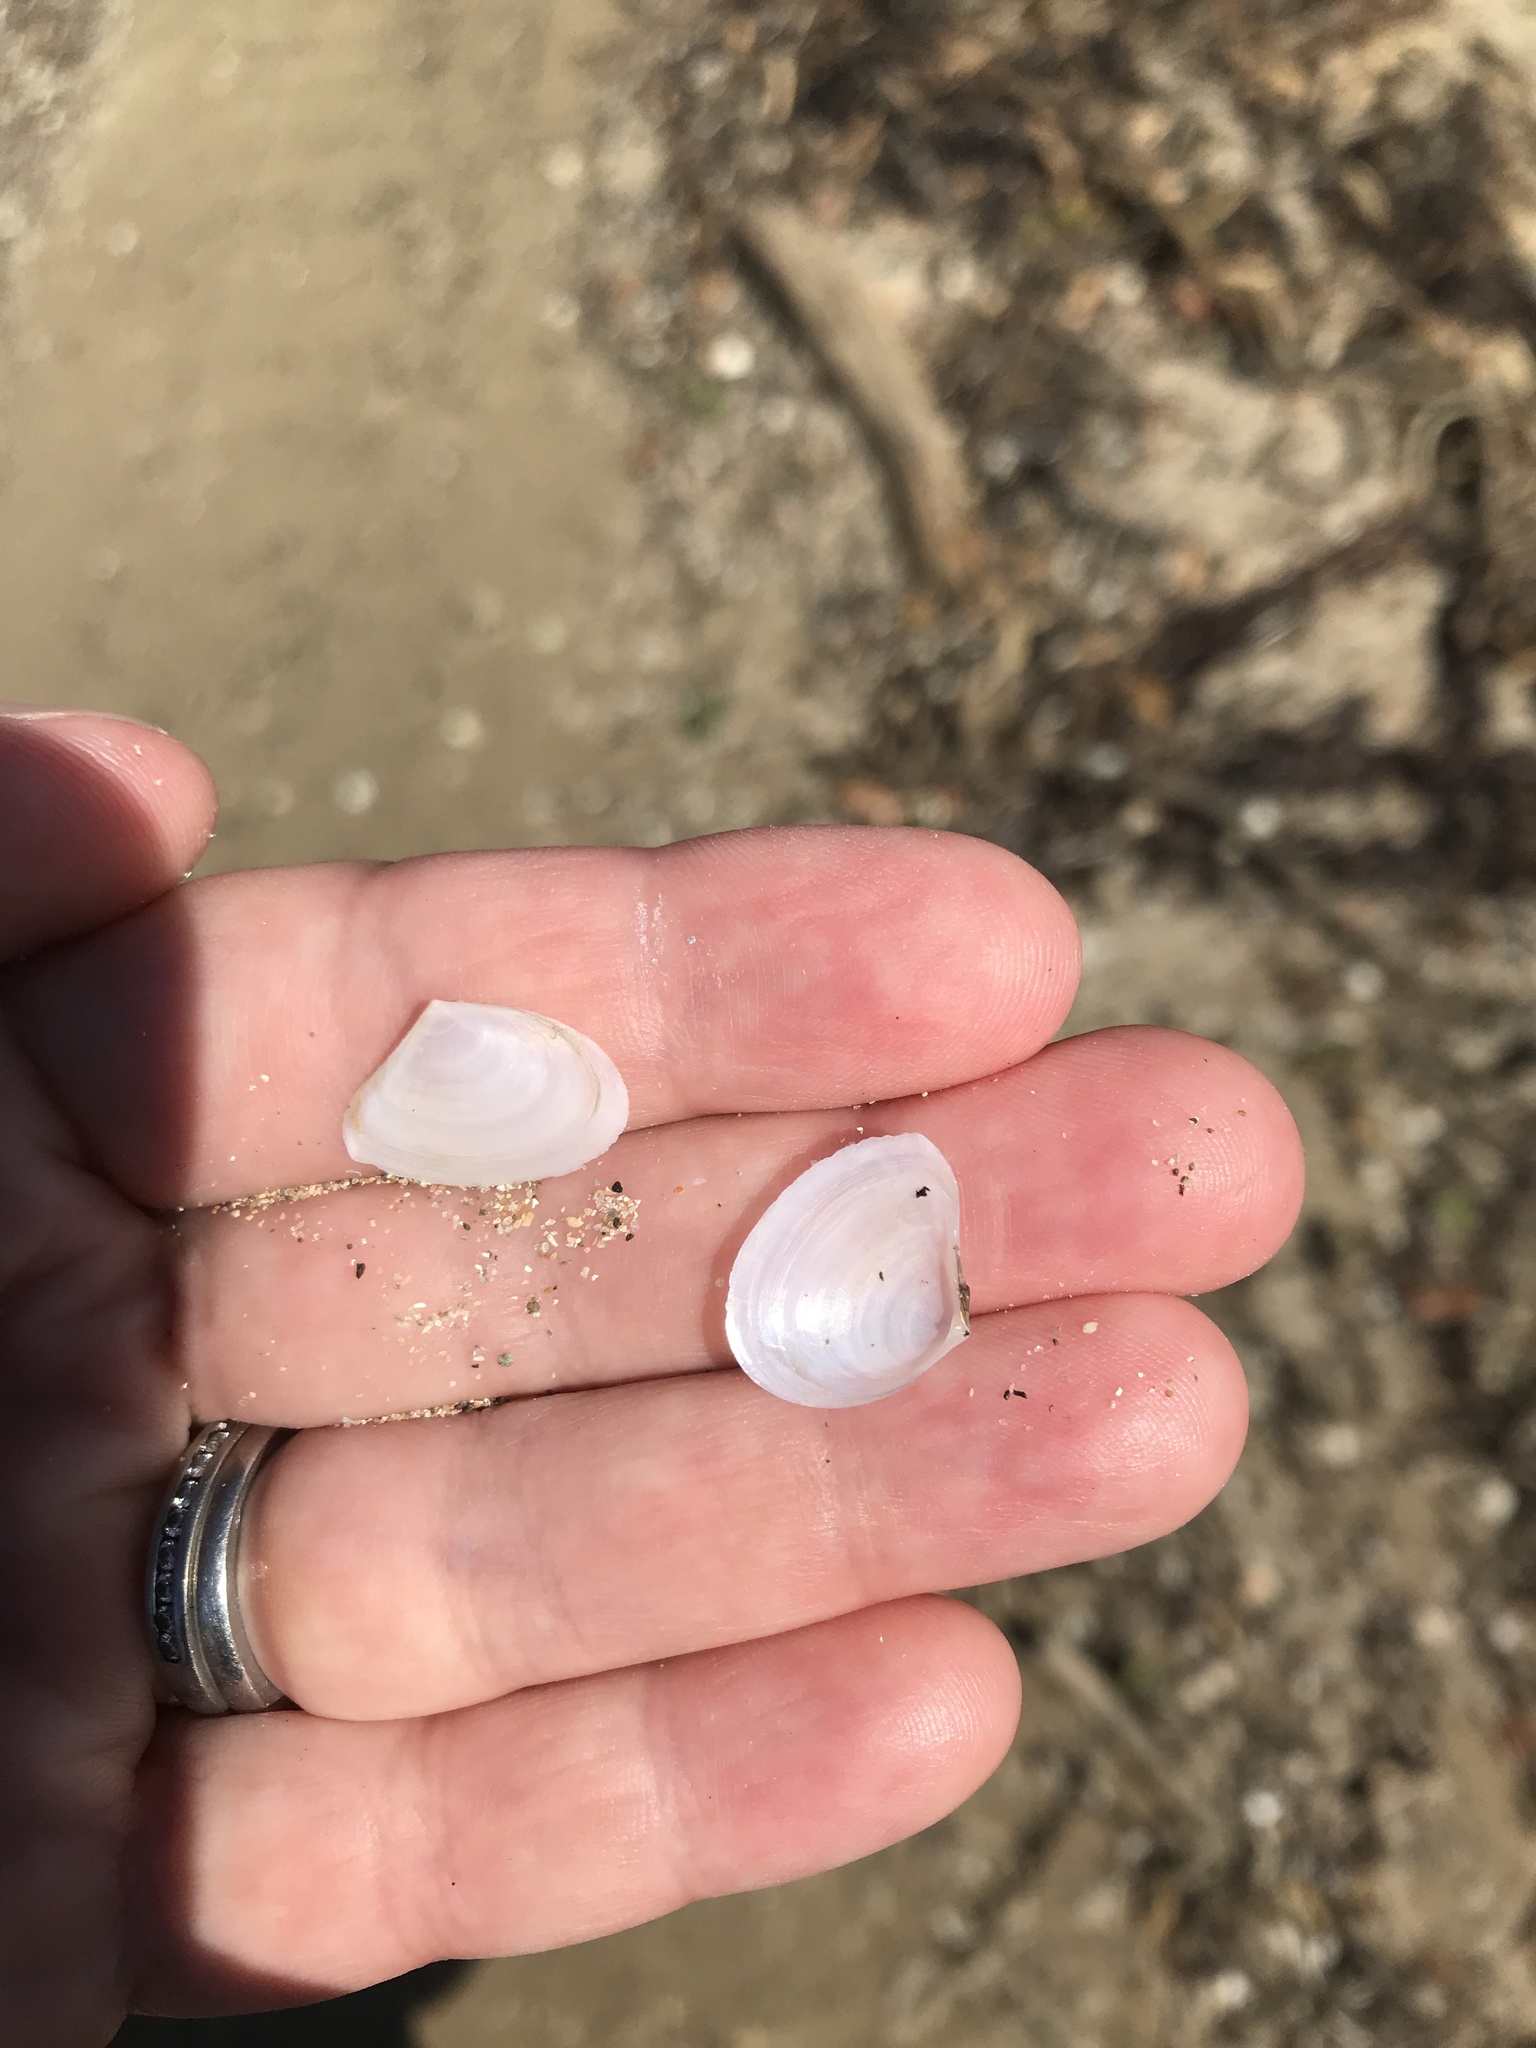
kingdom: Animalia
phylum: Mollusca
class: Bivalvia
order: Cardiida
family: Tellinidae
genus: Macomona
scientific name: Macomona liliana
